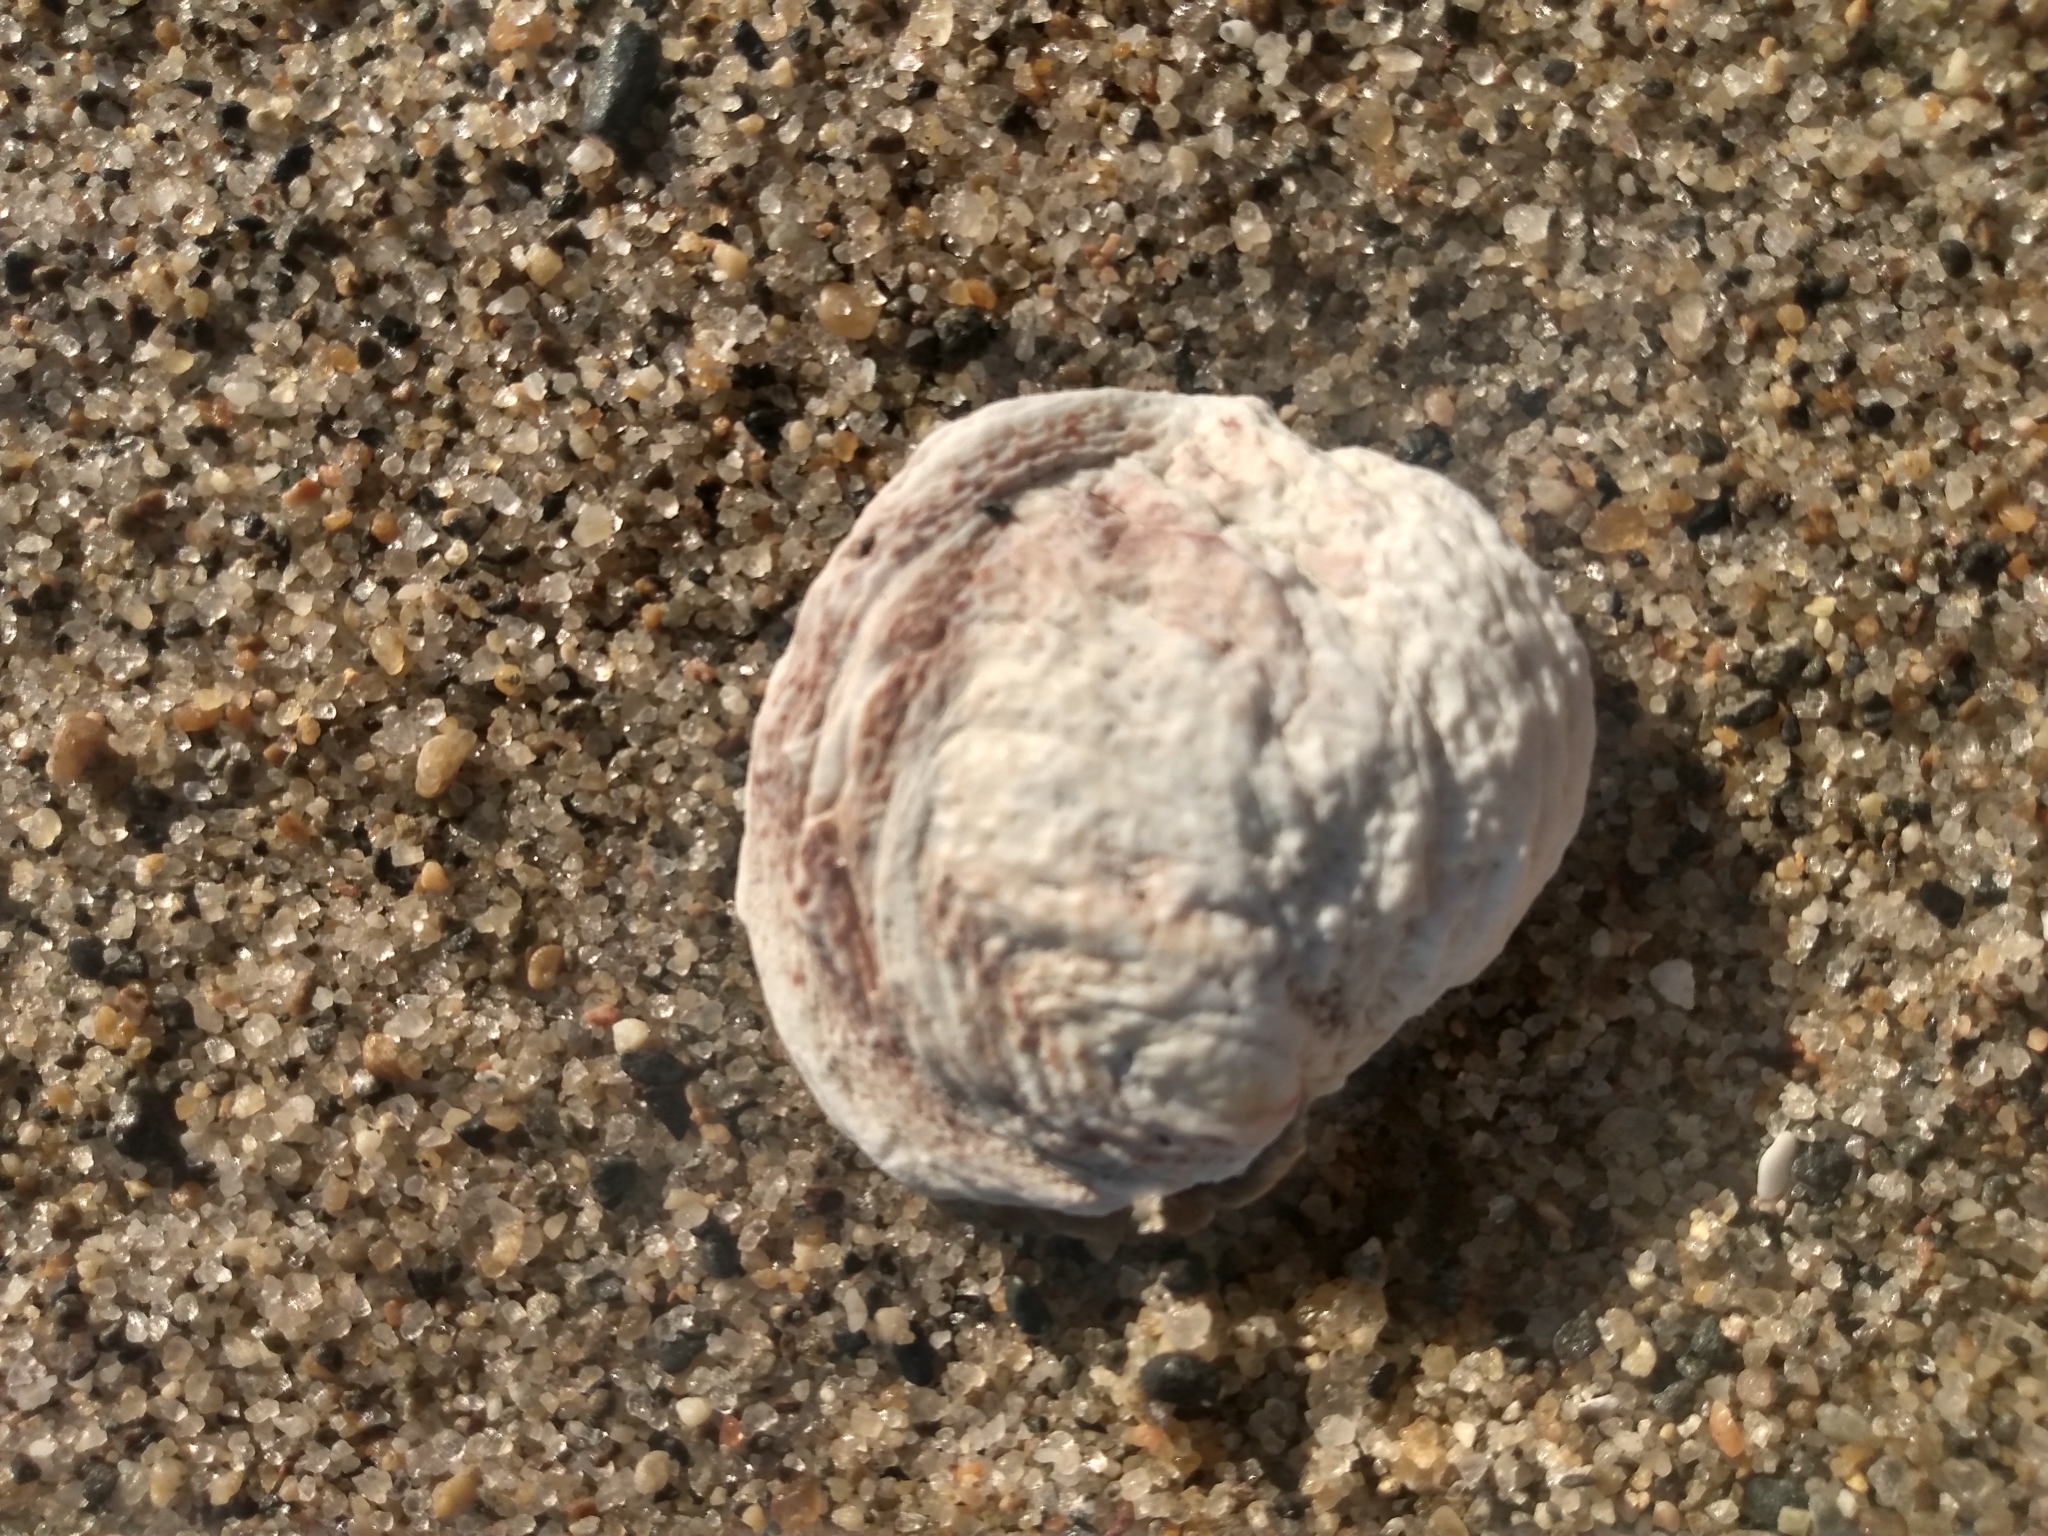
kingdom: Animalia
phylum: Mollusca
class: Bivalvia
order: Venerida
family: Chamidae
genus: Pseudochama
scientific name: Pseudochama exogyra
